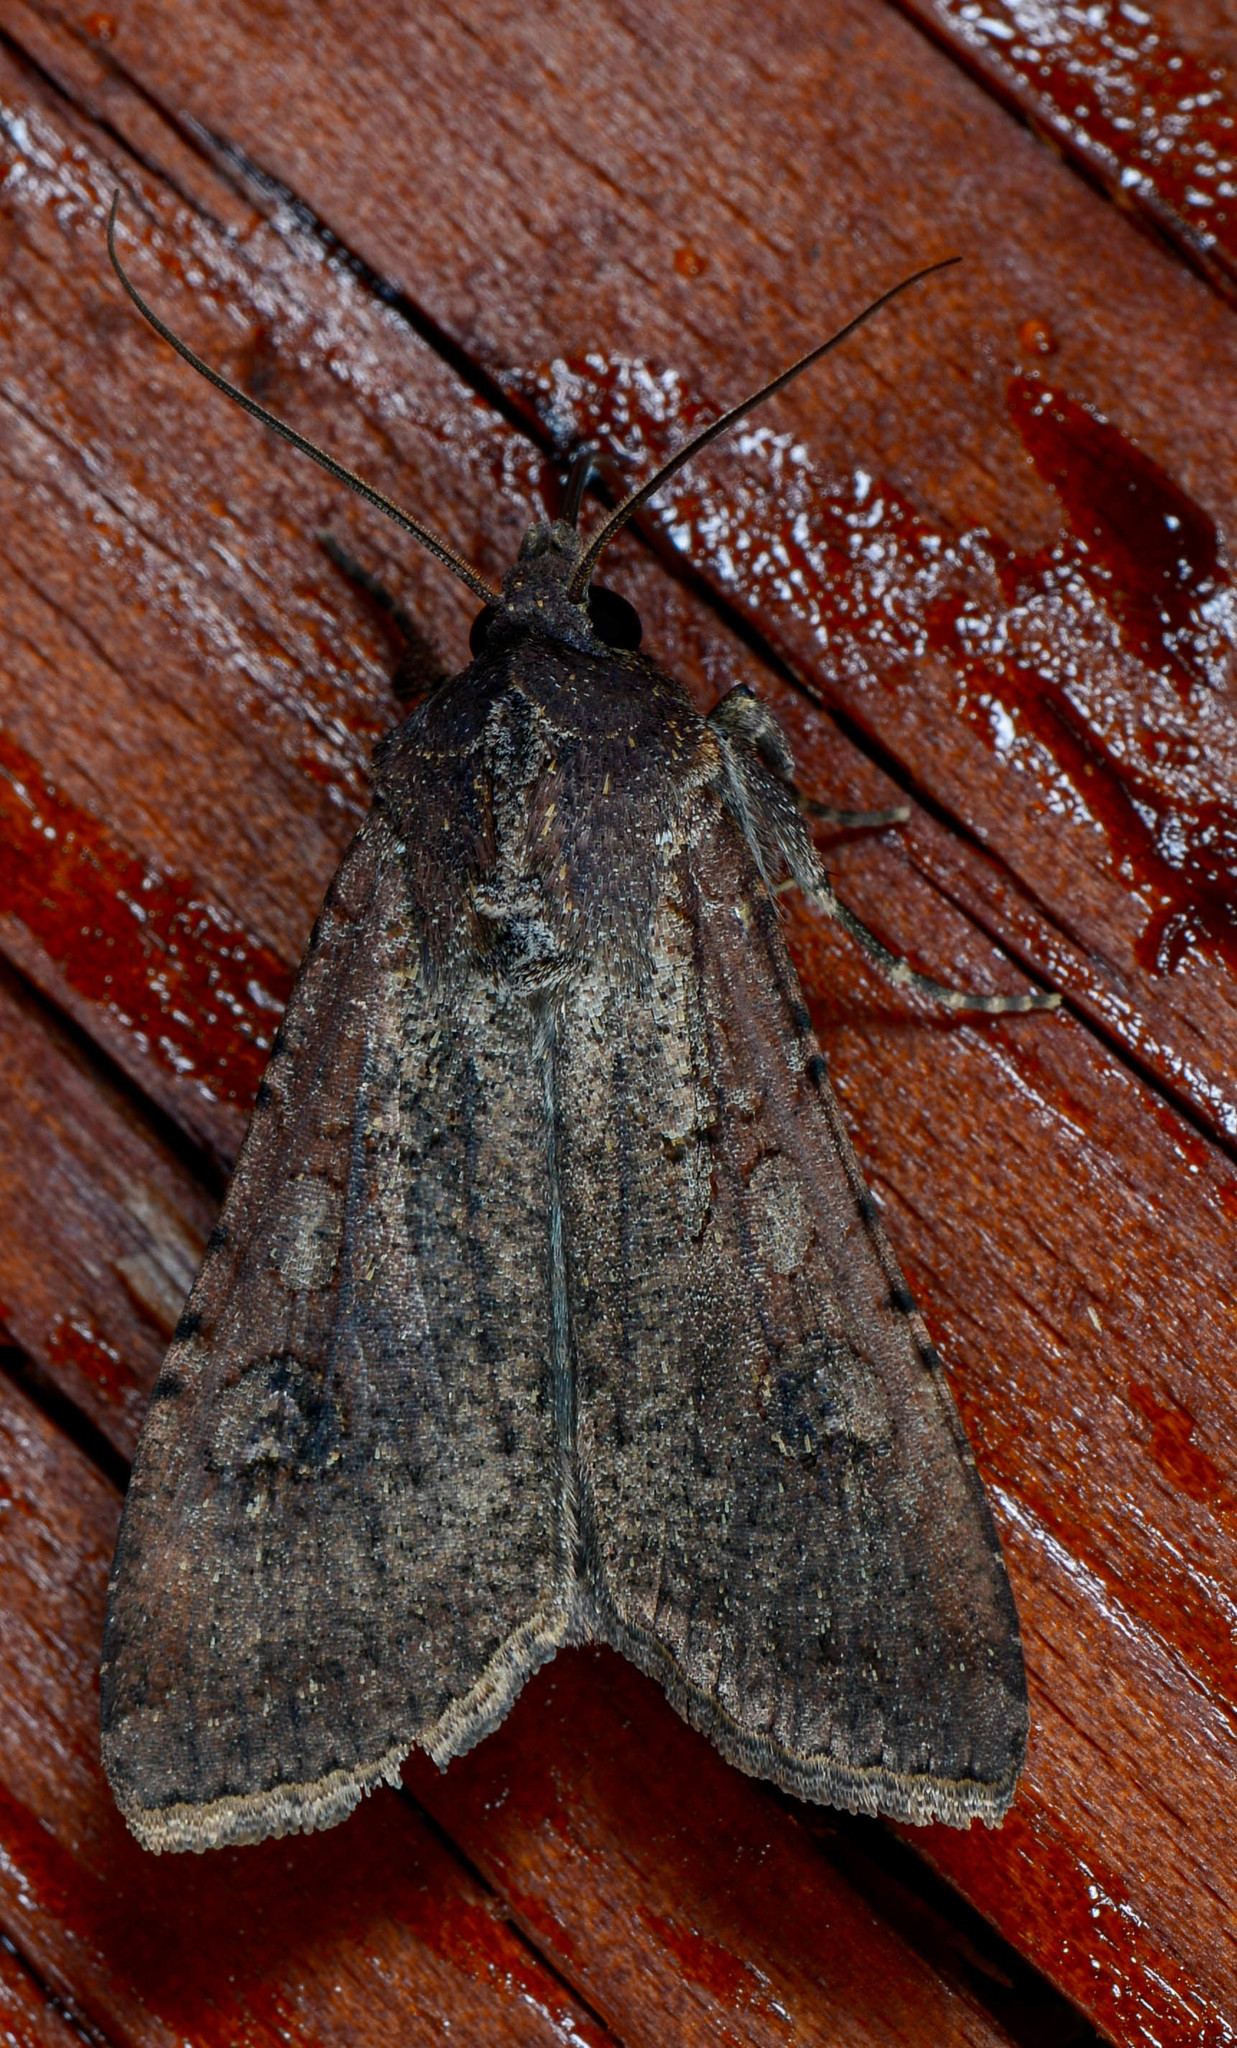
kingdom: Animalia
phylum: Arthropoda
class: Insecta
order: Lepidoptera
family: Noctuidae
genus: Peridroma
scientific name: Peridroma saucia
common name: Pearly underwing
